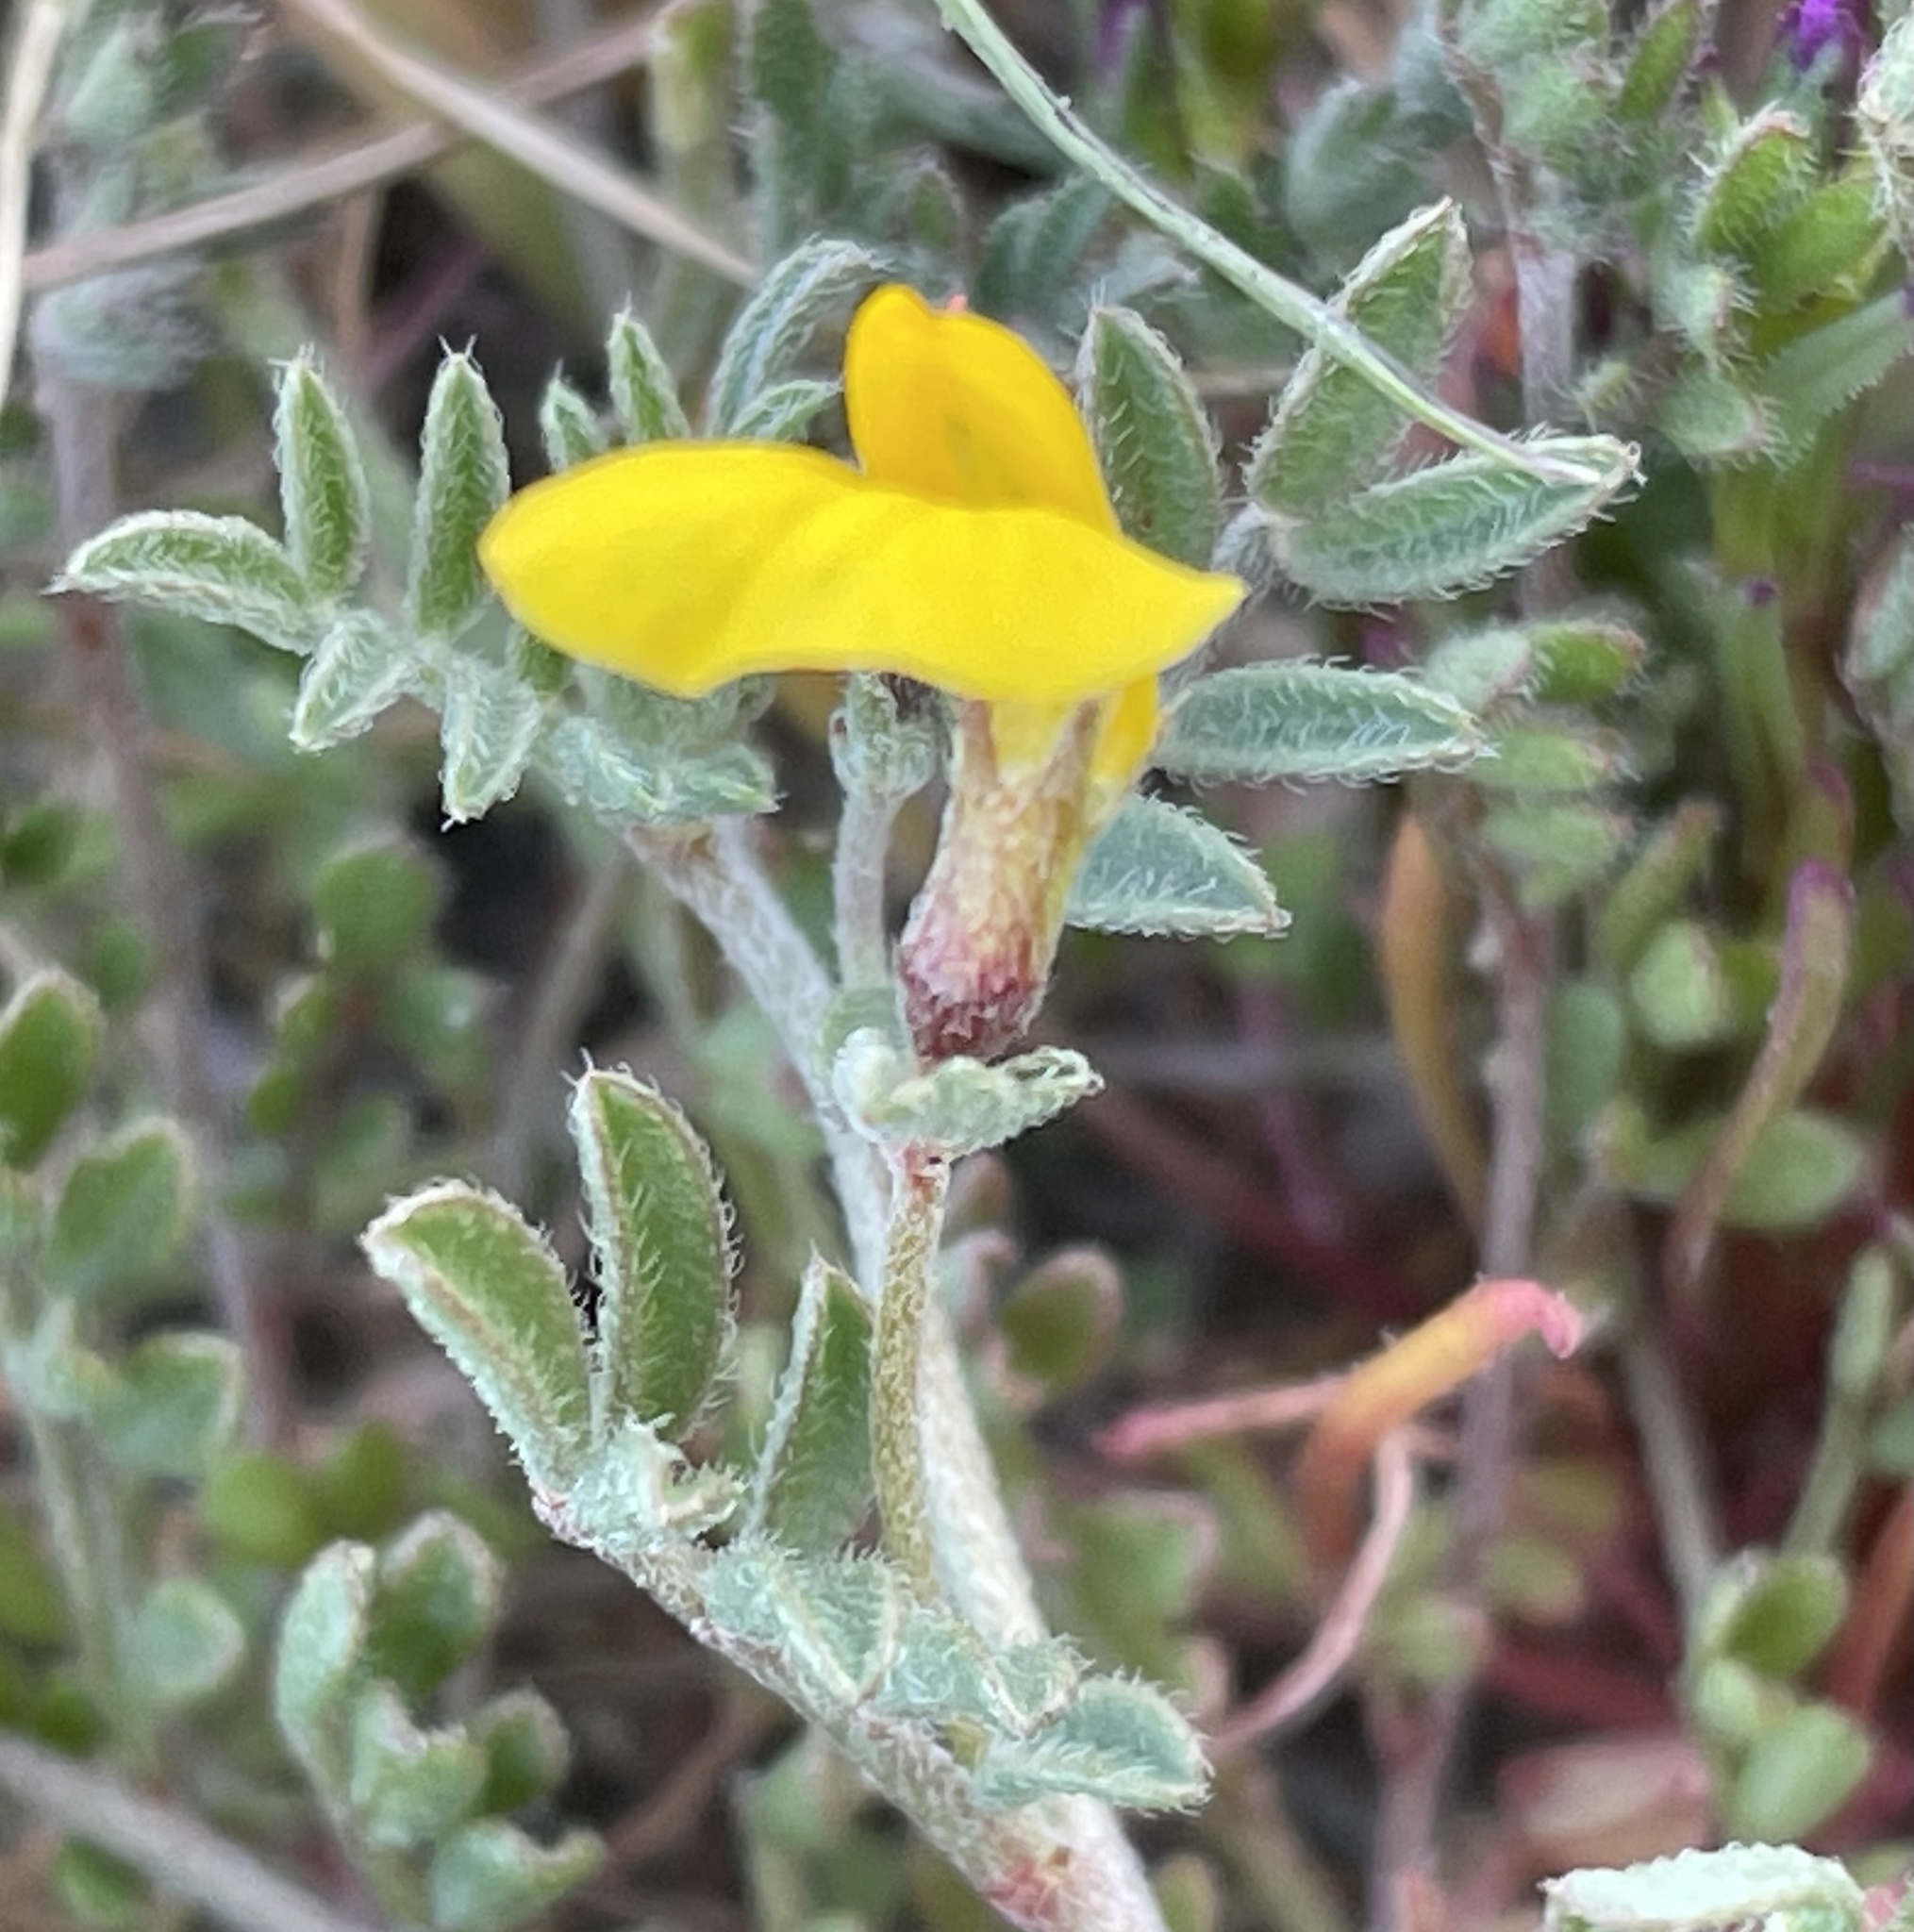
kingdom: Plantae
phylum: Tracheophyta
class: Magnoliopsida
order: Fabales
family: Fabaceae
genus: Acmispon
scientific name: Acmispon strigosus
